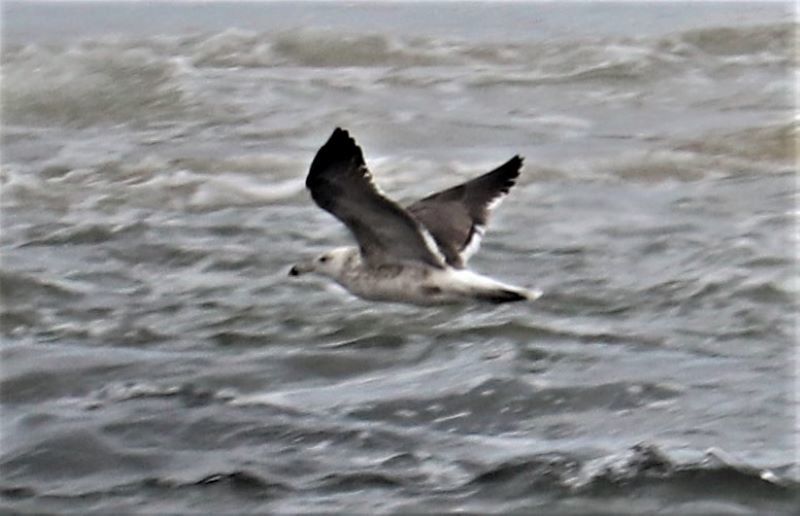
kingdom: Animalia
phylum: Chordata
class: Aves
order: Charadriiformes
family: Laridae
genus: Larus
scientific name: Larus dominicanus
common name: Kelp gull
